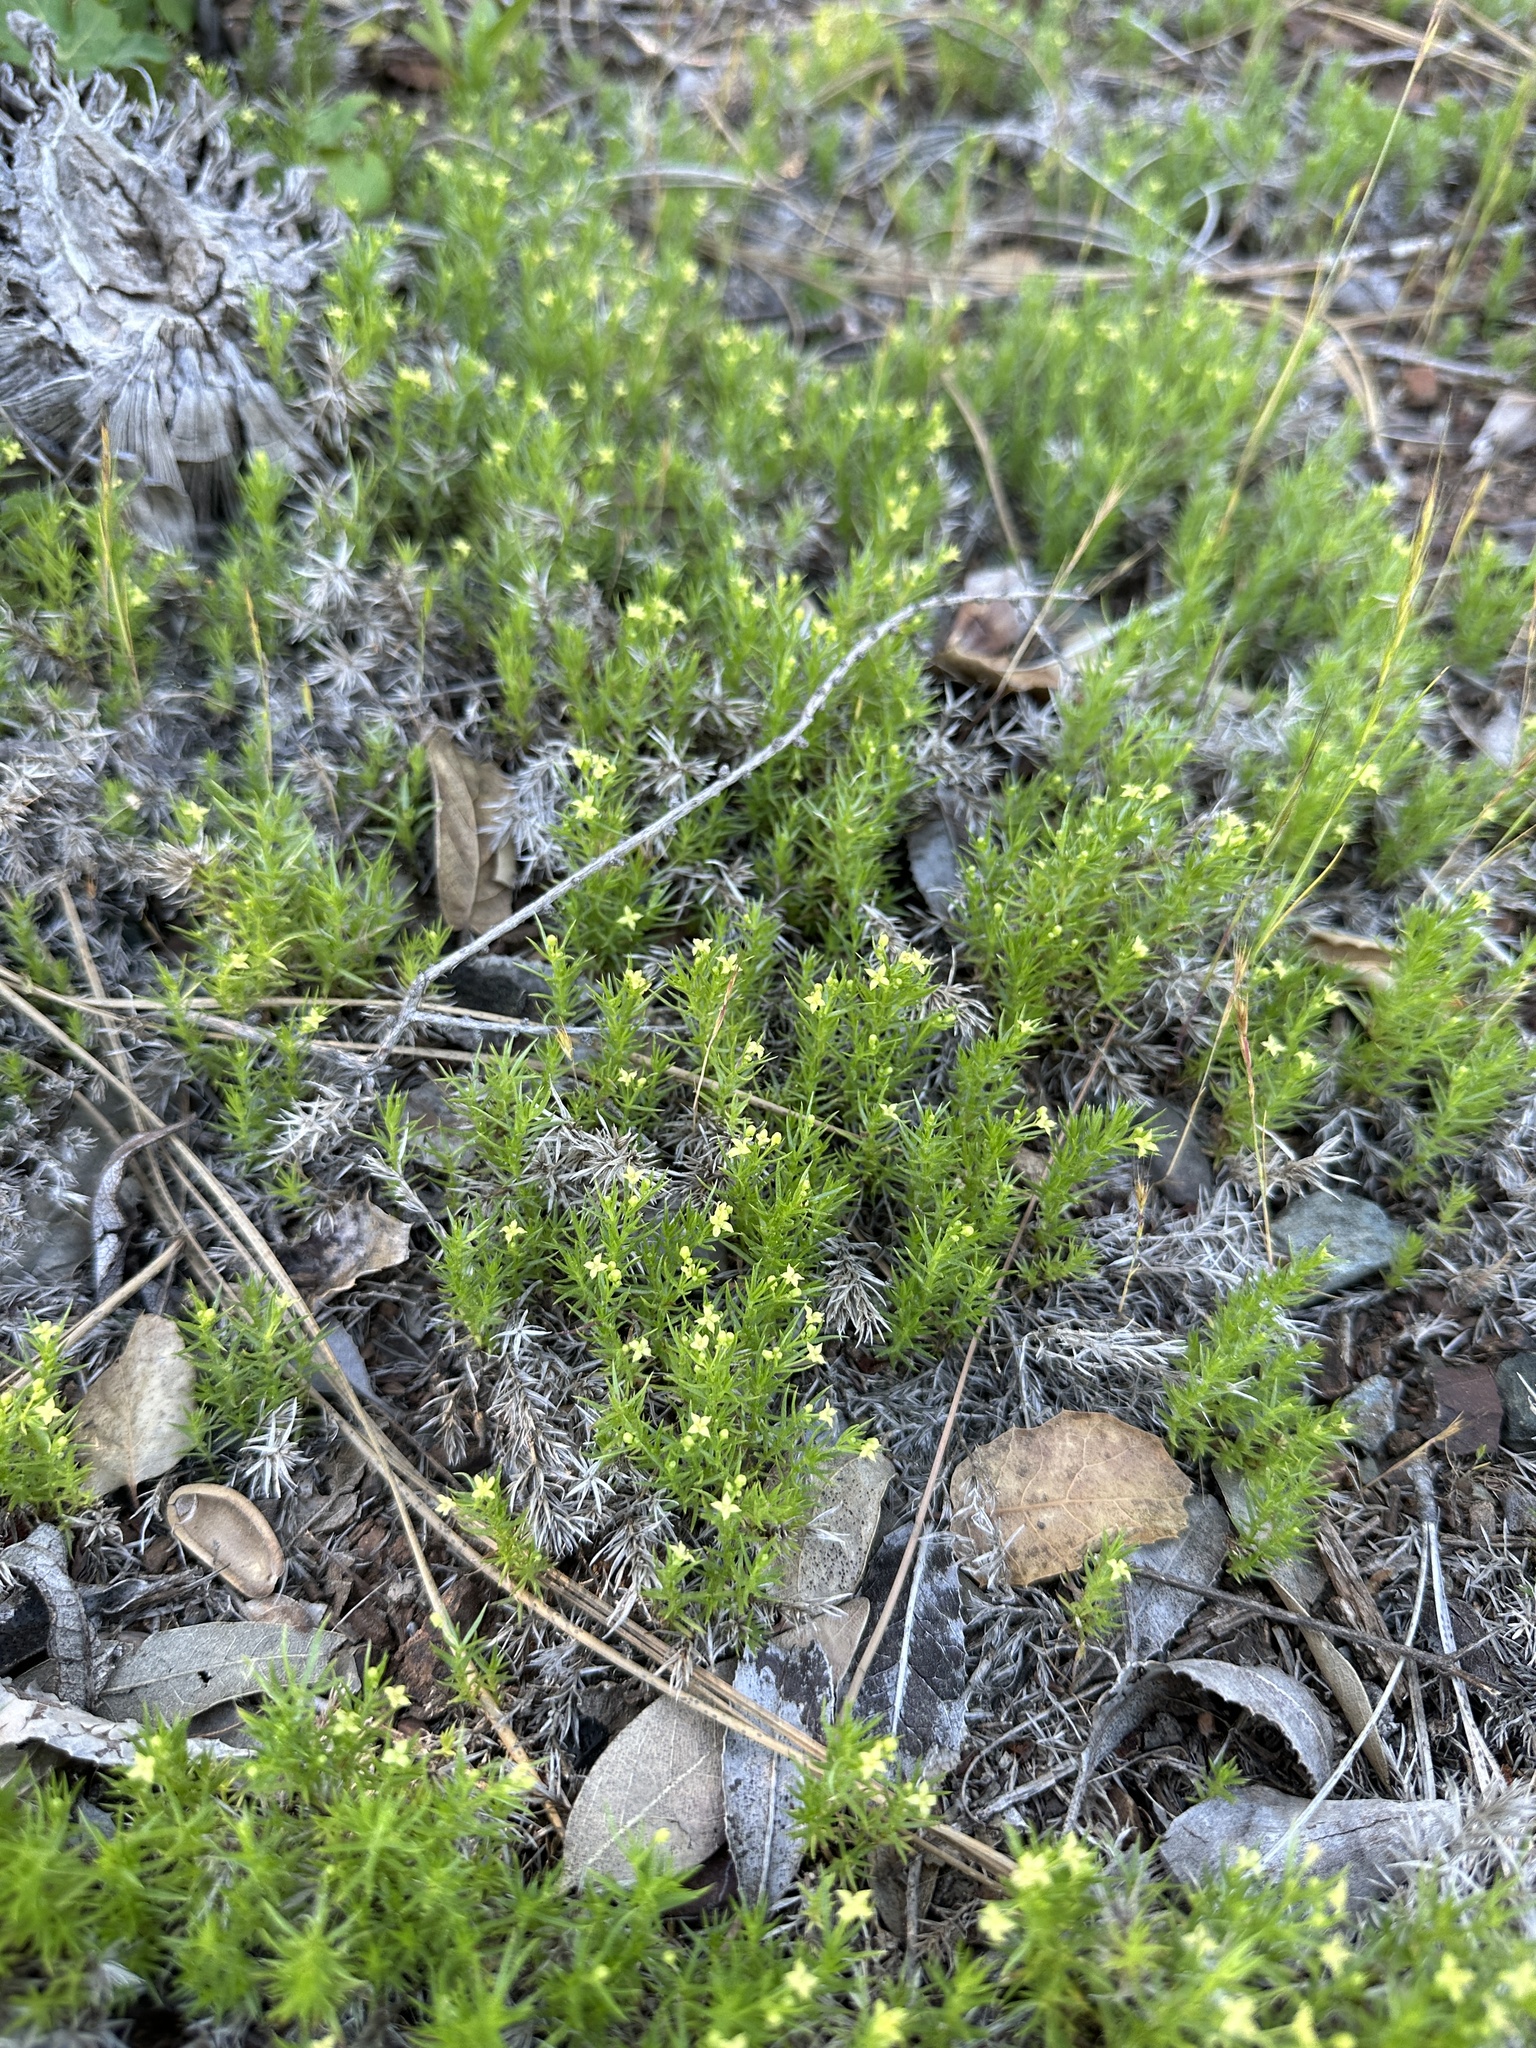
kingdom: Plantae
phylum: Tracheophyta
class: Magnoliopsida
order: Gentianales
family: Rubiaceae
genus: Galium
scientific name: Galium andrewsii
